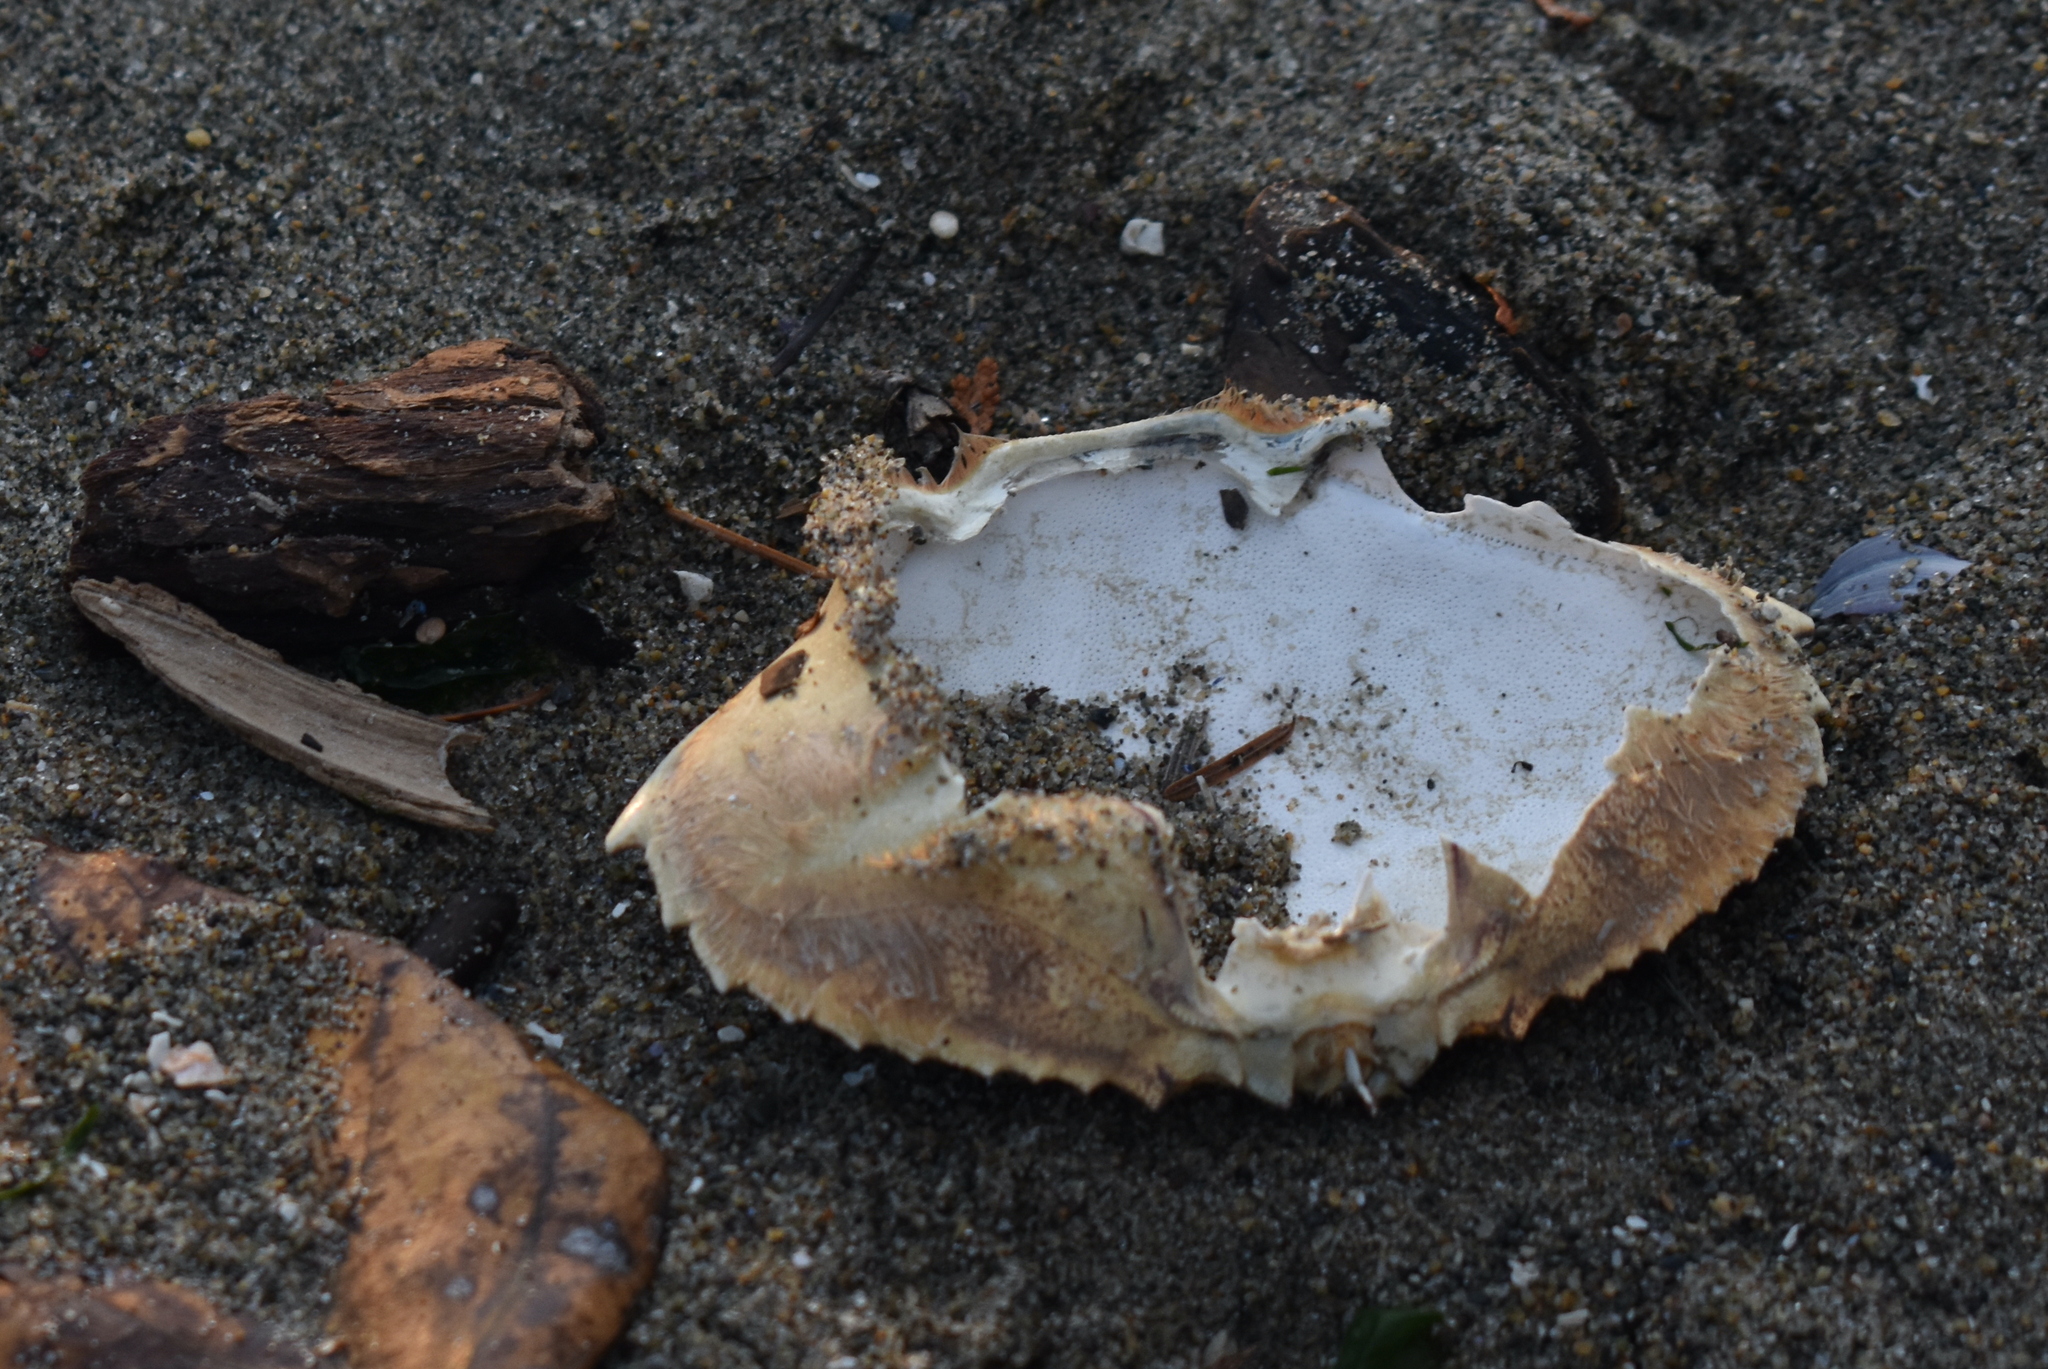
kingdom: Animalia
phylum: Arthropoda
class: Malacostraca
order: Decapoda
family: Cancridae
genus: Metacarcinus
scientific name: Metacarcinus magister
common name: Californian crab
